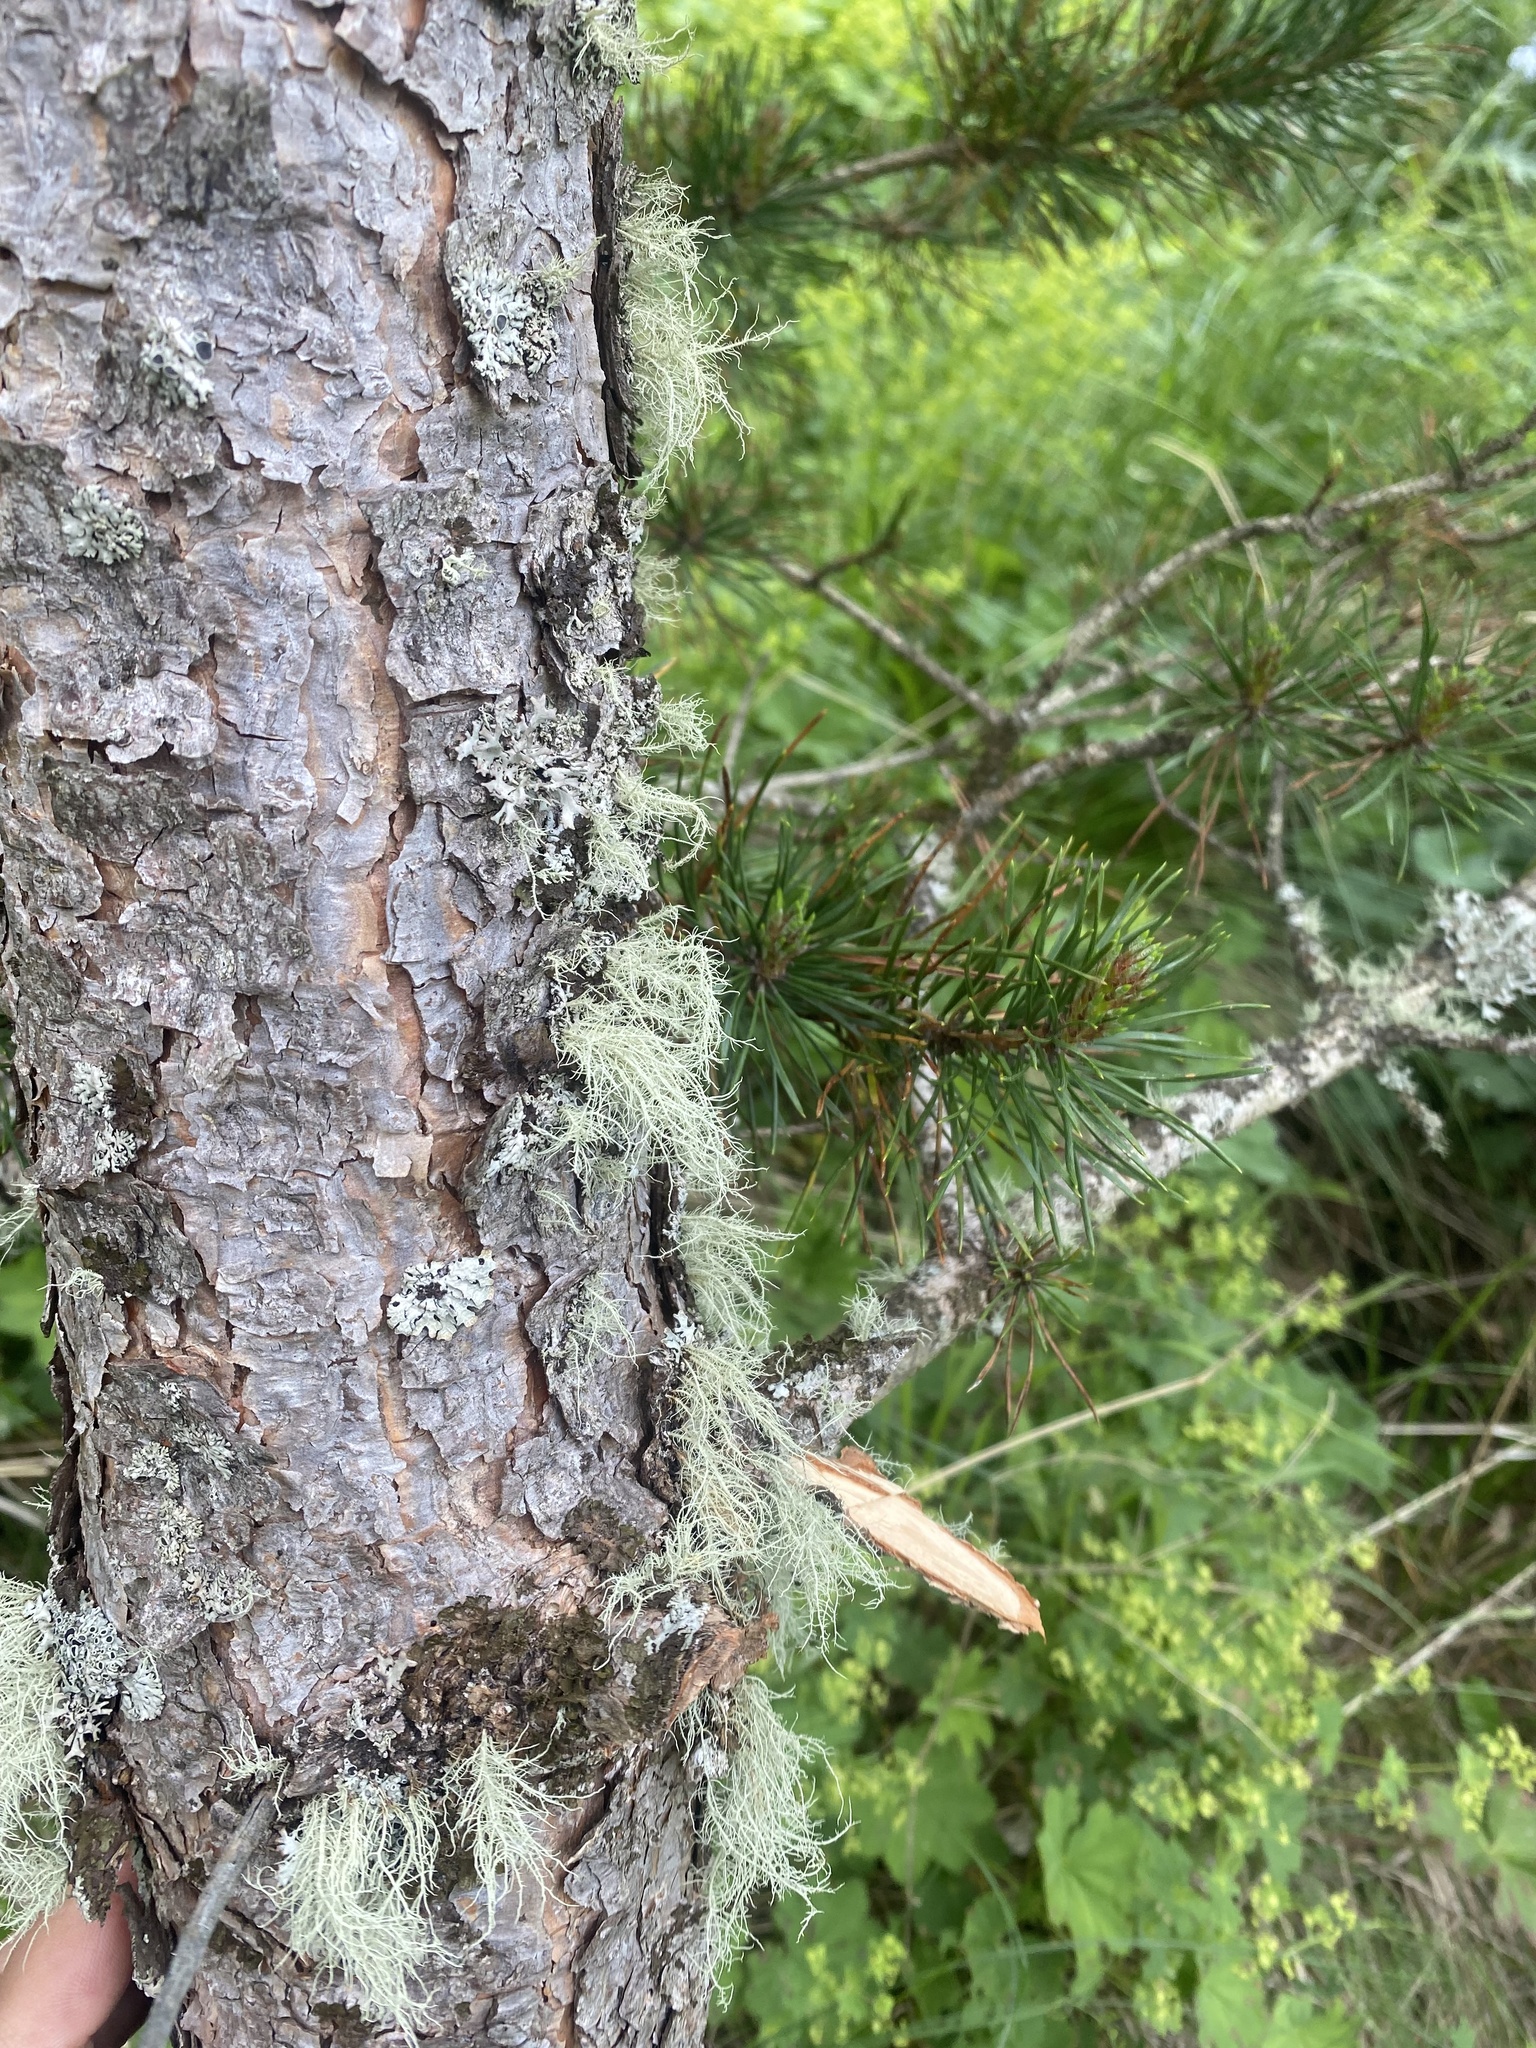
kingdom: Plantae
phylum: Tracheophyta
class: Pinopsida
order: Pinales
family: Pinaceae
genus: Pinus
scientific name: Pinus sylvestris
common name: Scots pine
